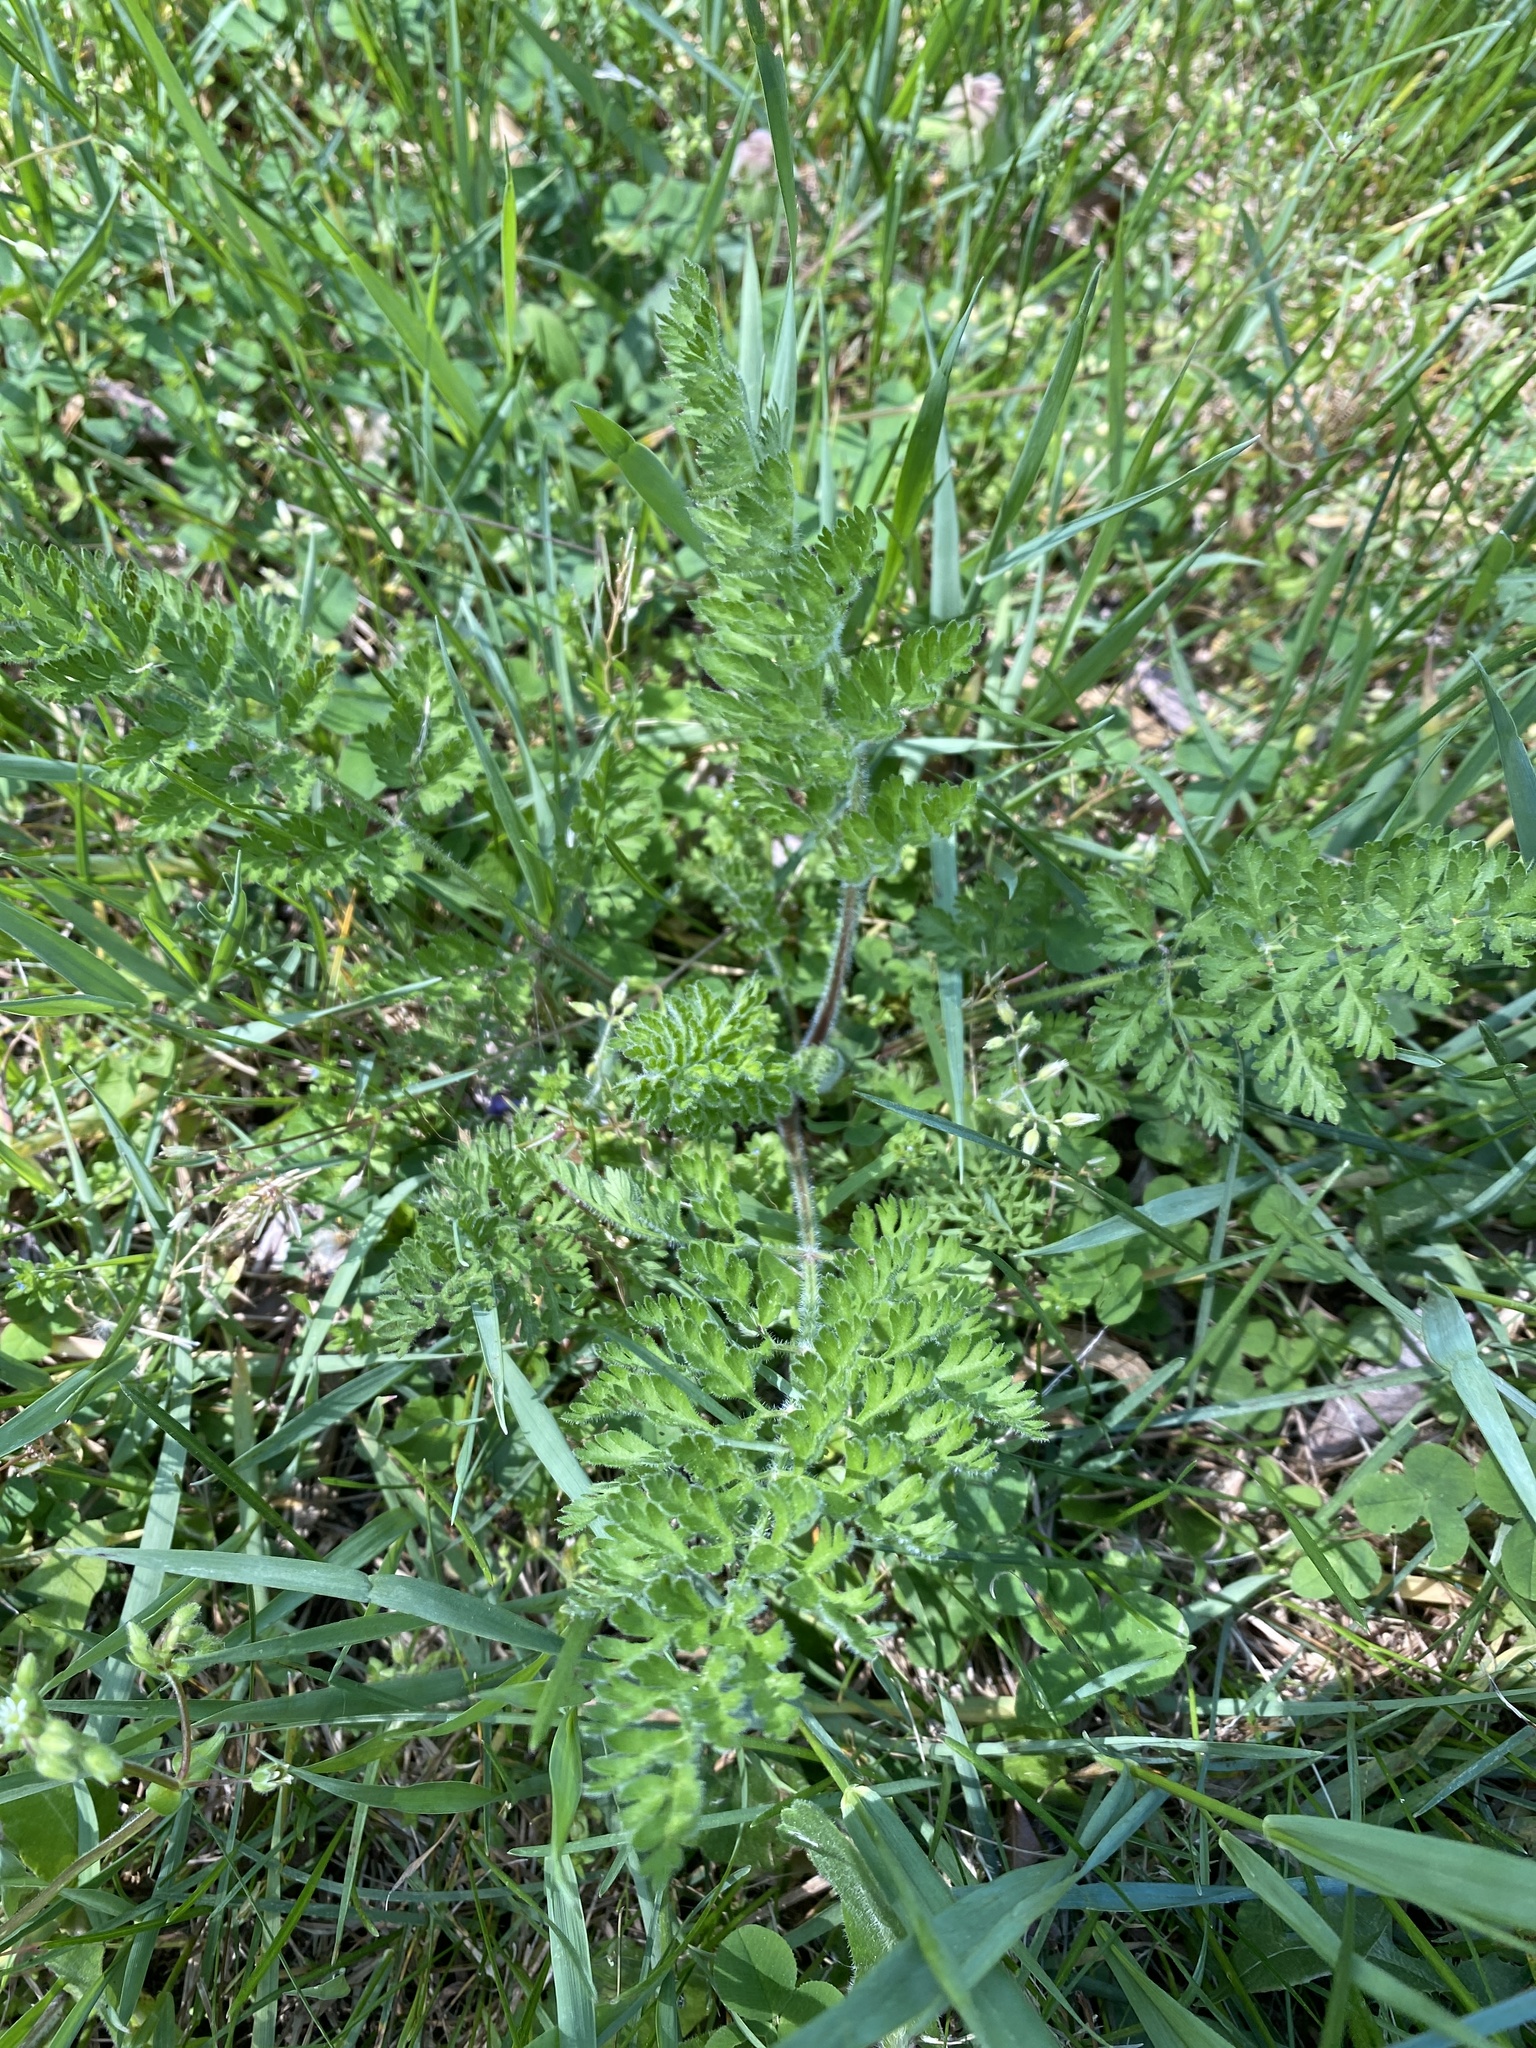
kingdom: Plantae
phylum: Tracheophyta
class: Magnoliopsida
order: Apiales
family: Apiaceae
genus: Daucus
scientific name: Daucus carota
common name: Wild carrot
